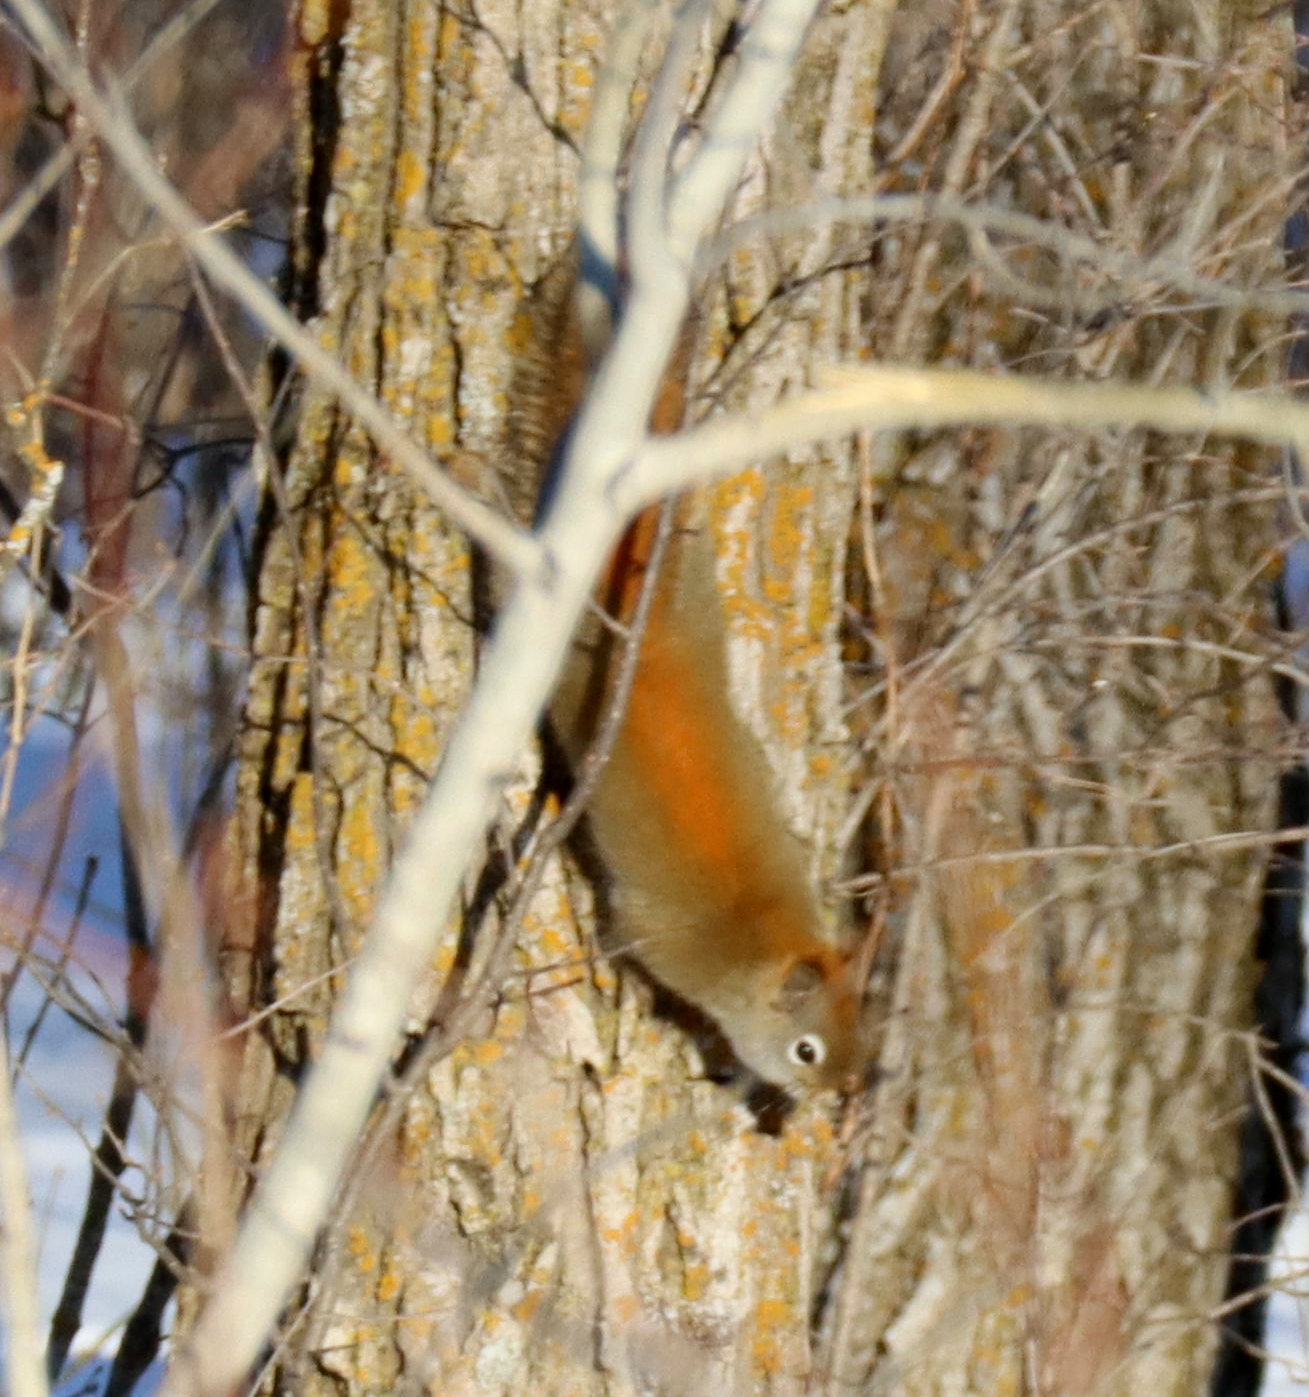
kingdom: Animalia
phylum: Chordata
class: Mammalia
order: Rodentia
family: Sciuridae
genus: Tamiasciurus
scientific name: Tamiasciurus hudsonicus
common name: Red squirrel
